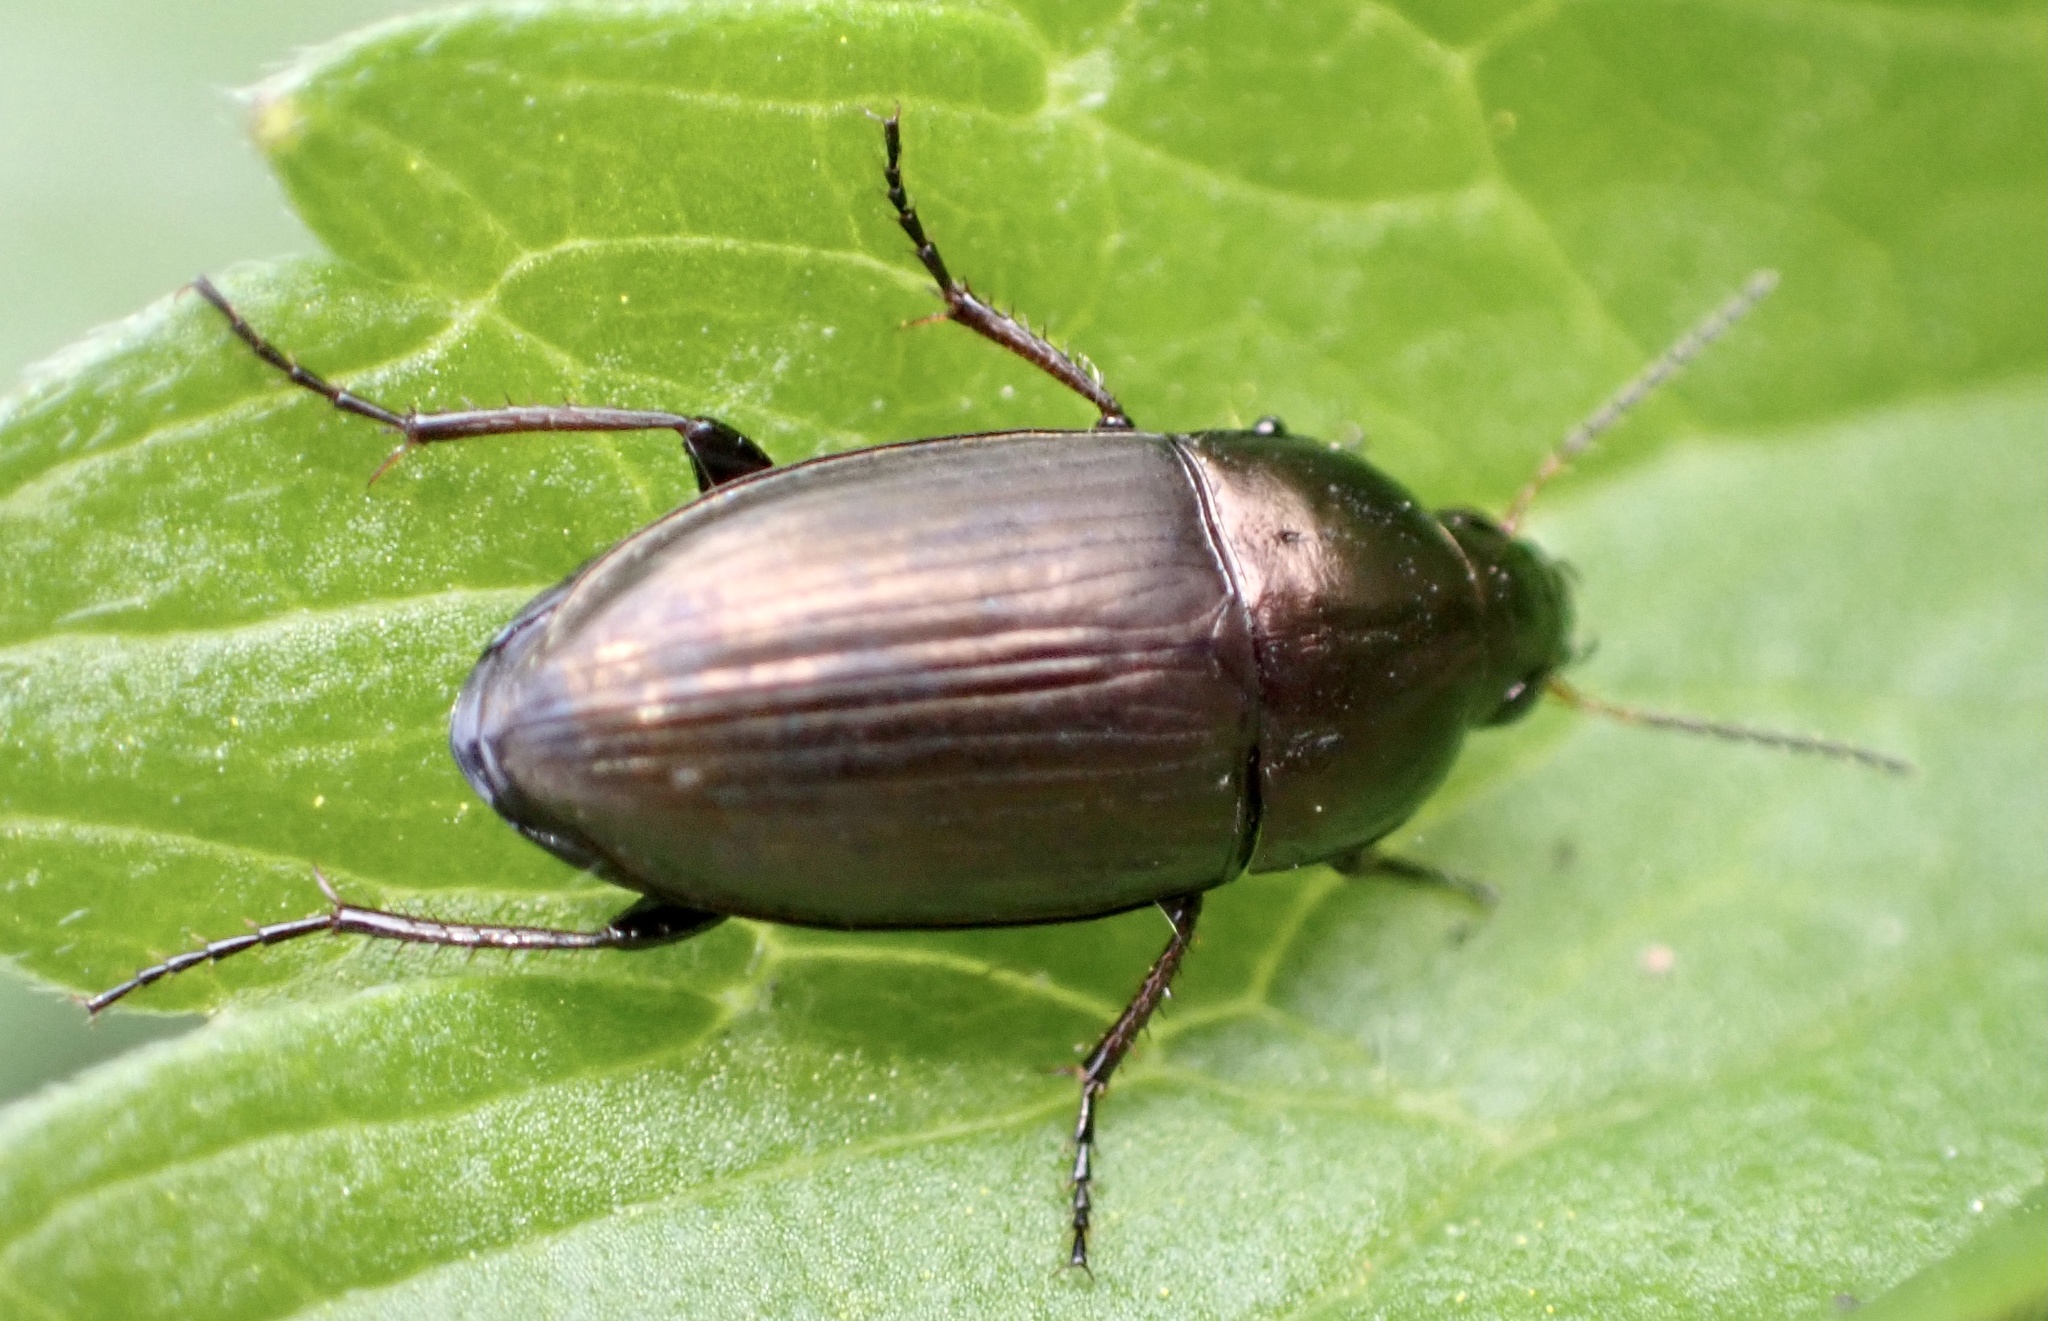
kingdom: Animalia
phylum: Arthropoda
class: Insecta
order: Coleoptera
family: Carabidae
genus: Amara
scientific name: Amara aenea
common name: Common sun beetle
